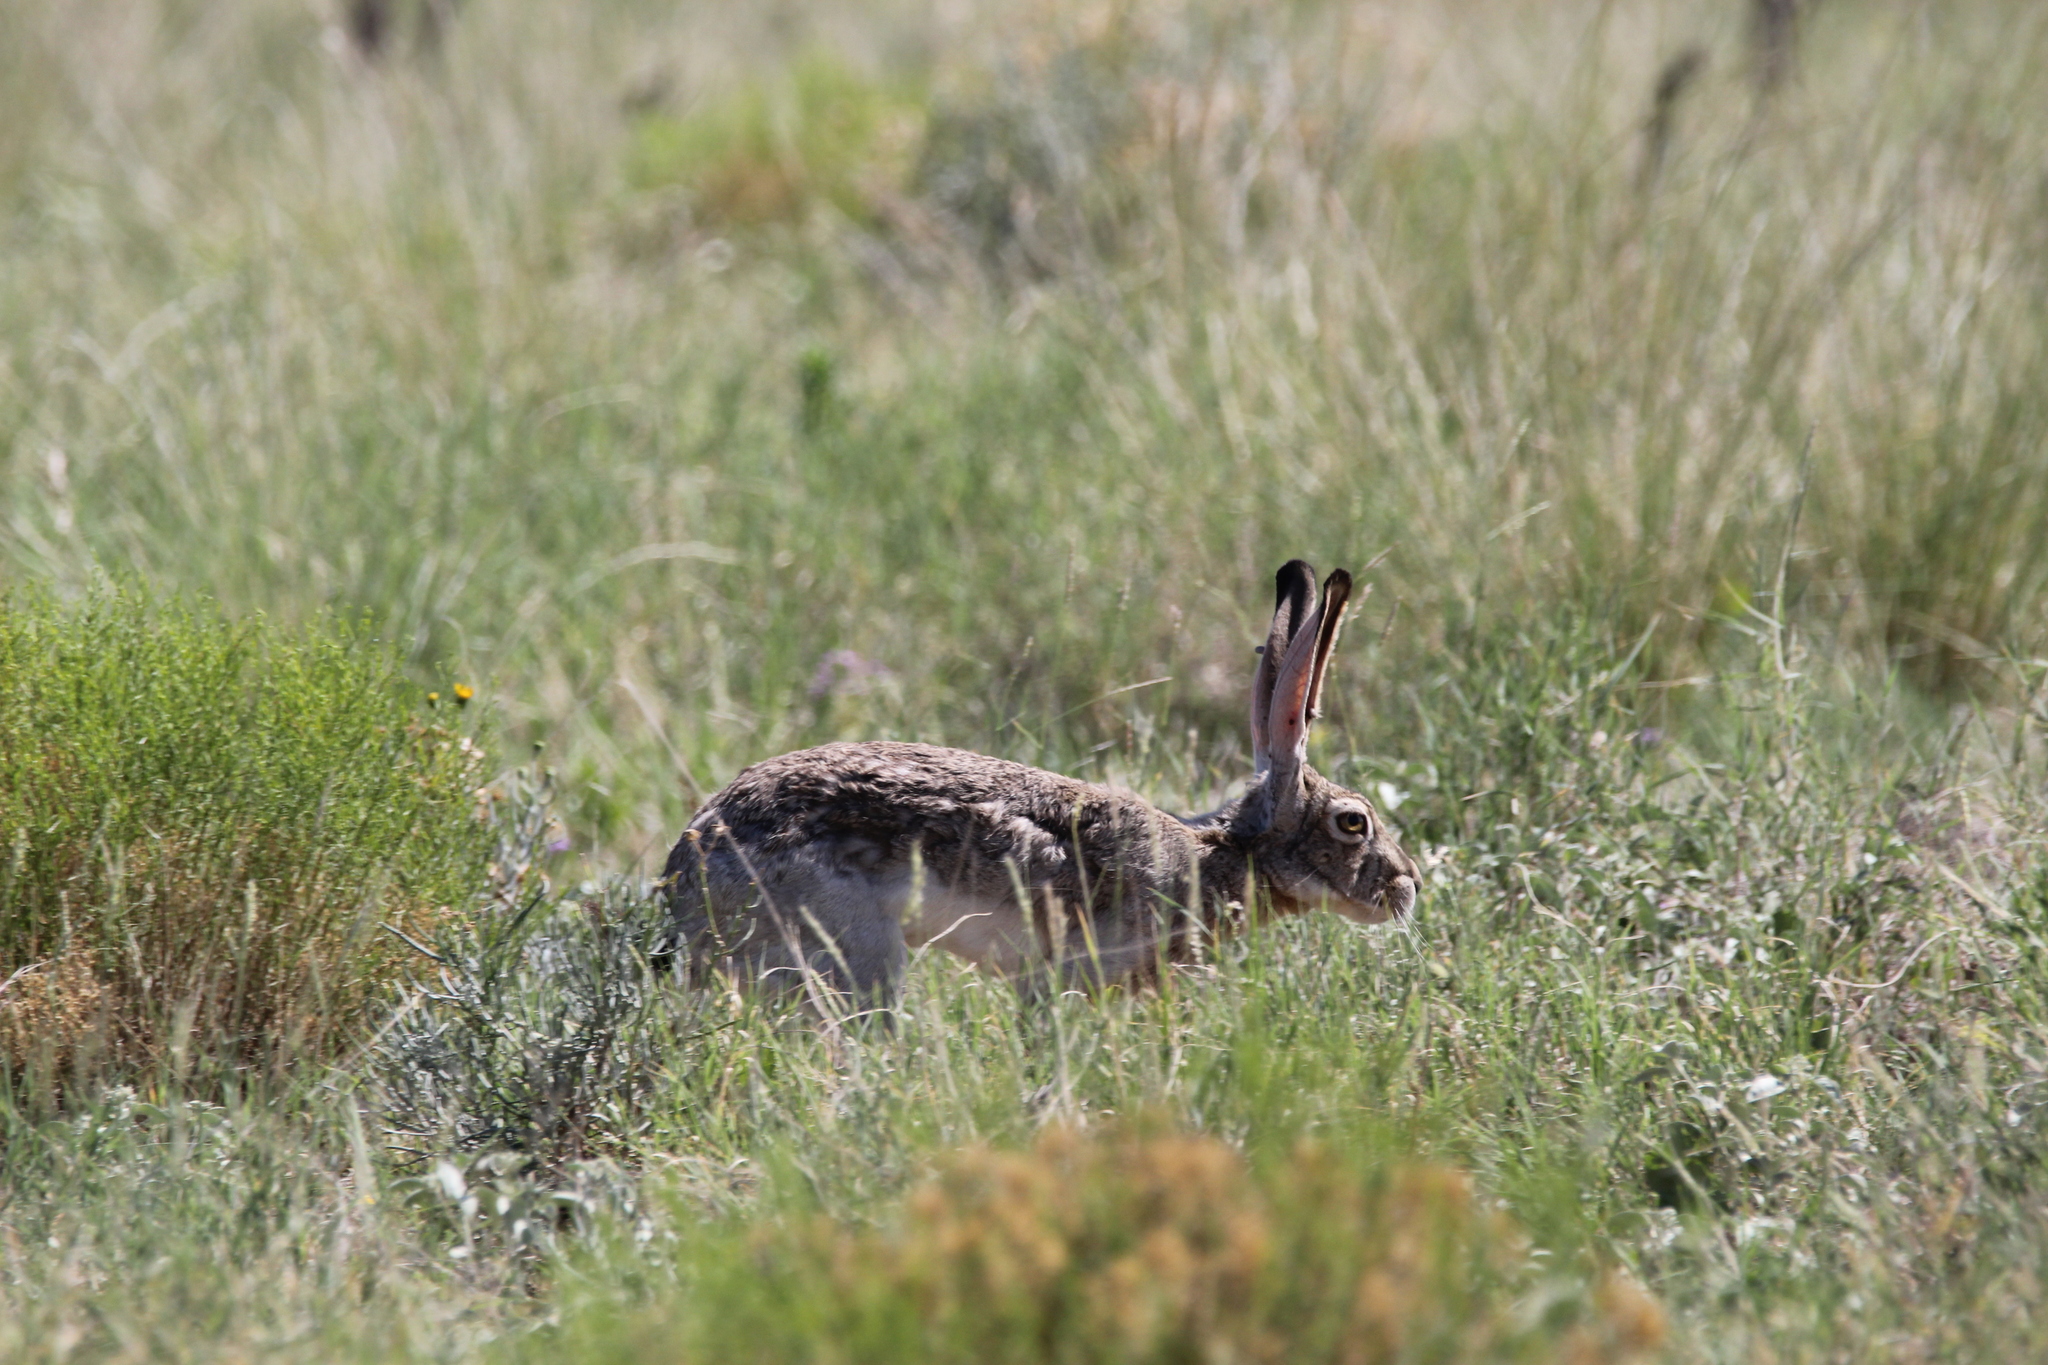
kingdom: Animalia
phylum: Chordata
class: Mammalia
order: Lagomorpha
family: Leporidae
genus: Lepus
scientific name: Lepus californicus
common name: Black-tailed jackrabbit
